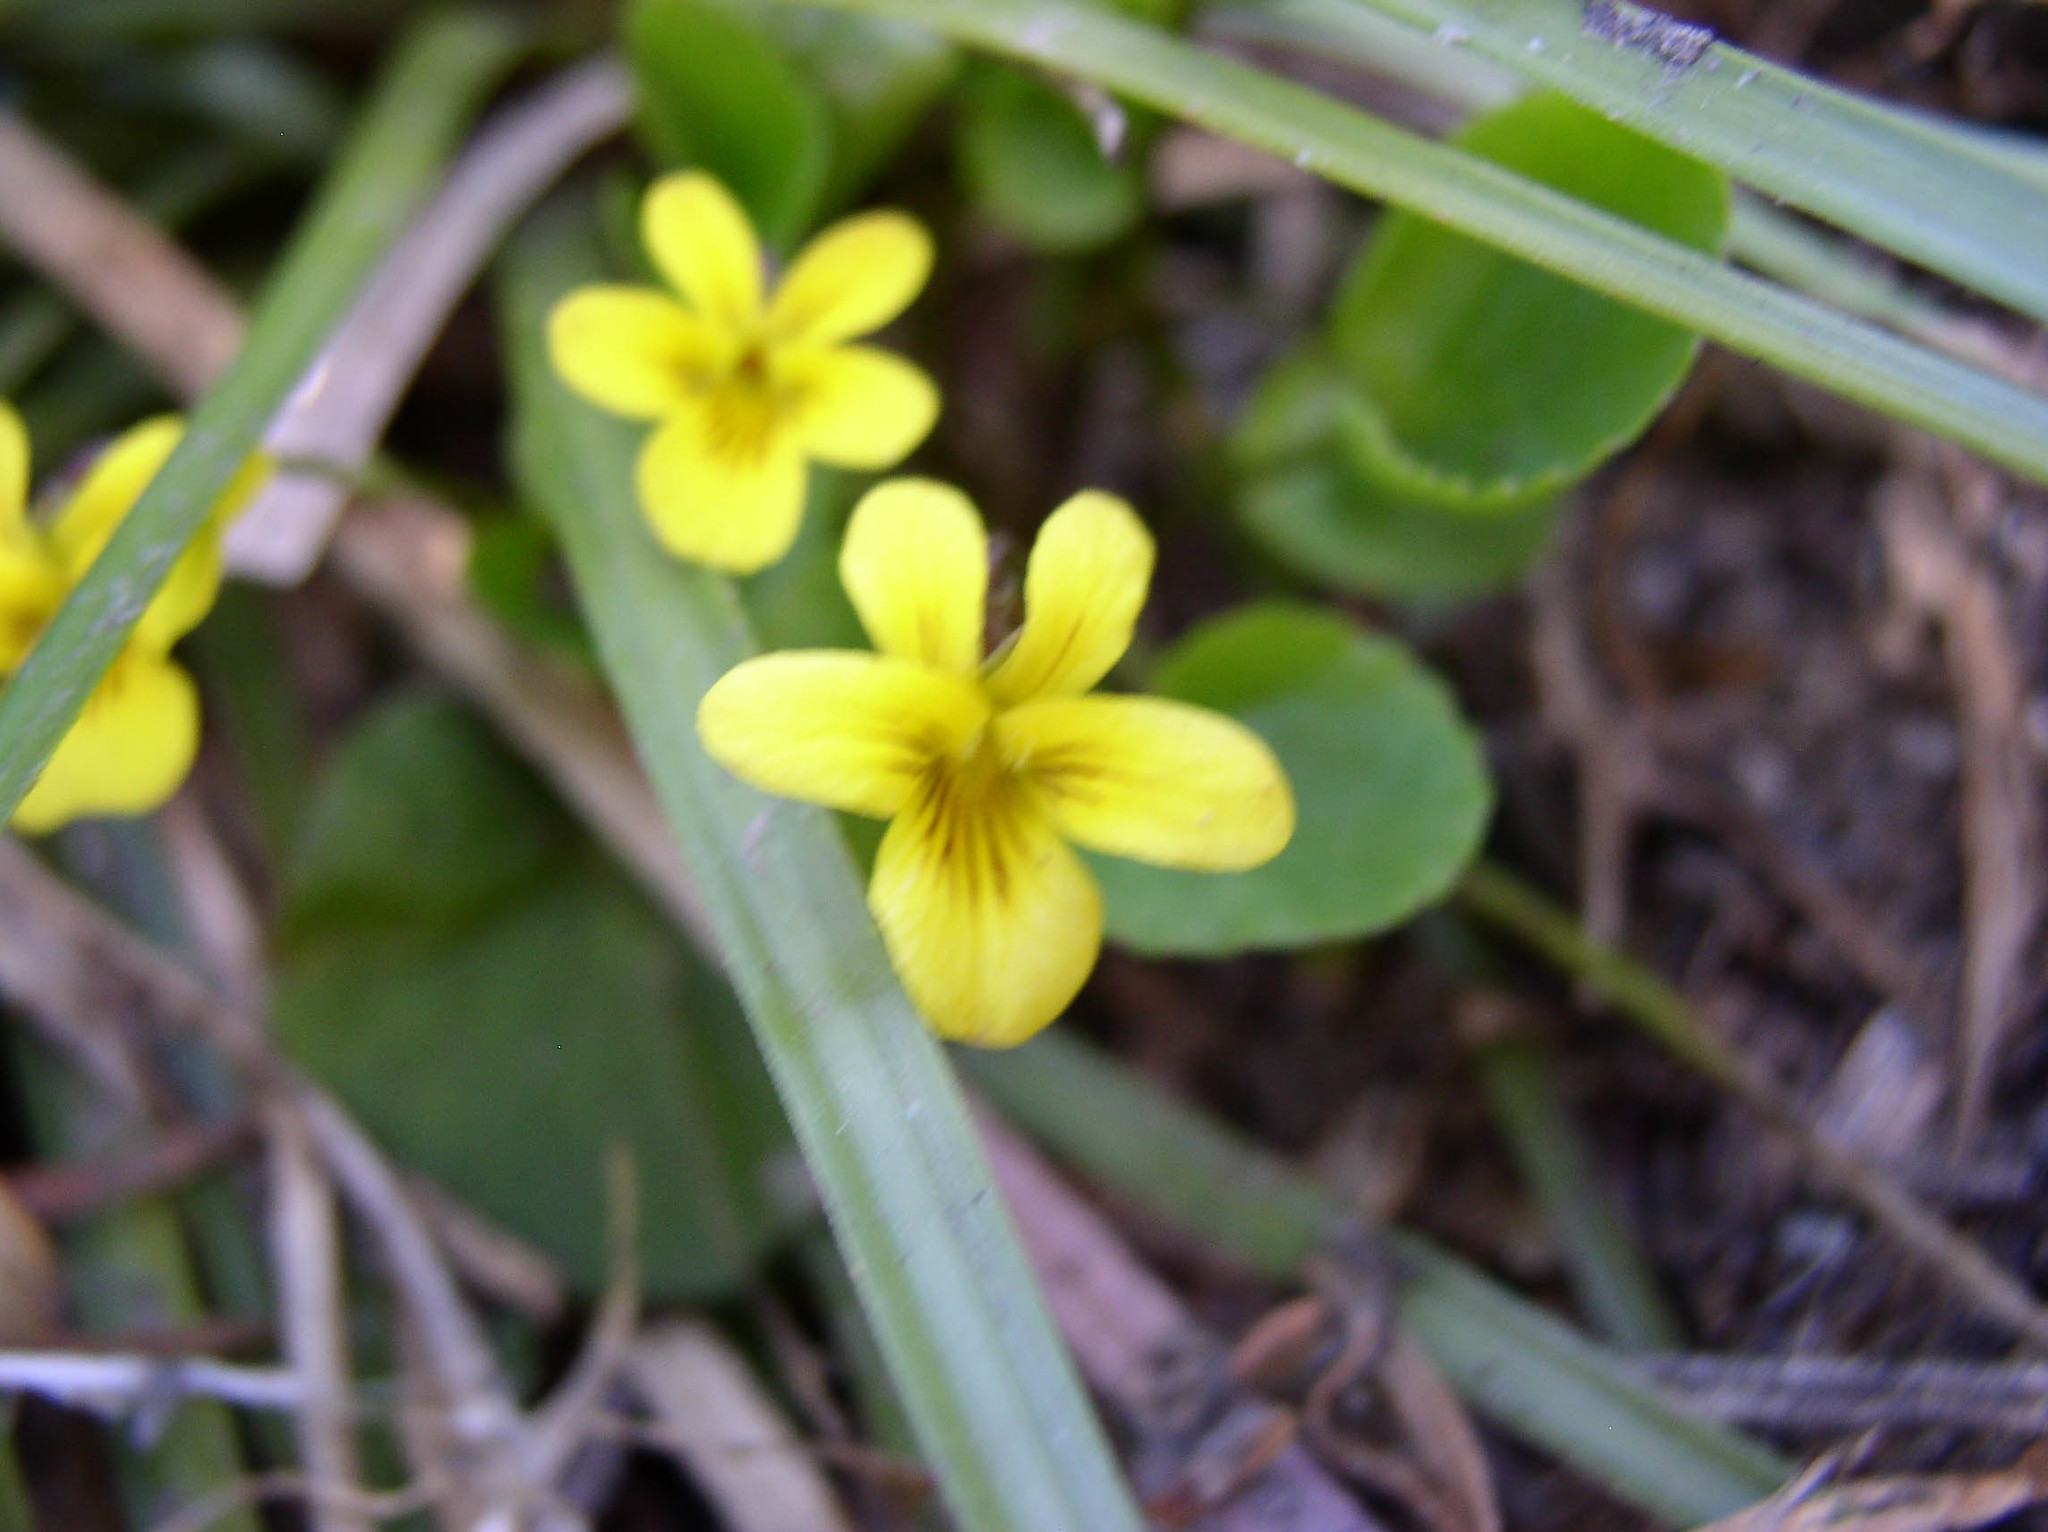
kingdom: Plantae
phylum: Tracheophyta
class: Magnoliopsida
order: Malpighiales
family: Violaceae
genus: Viola
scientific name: Viola orbiculata
